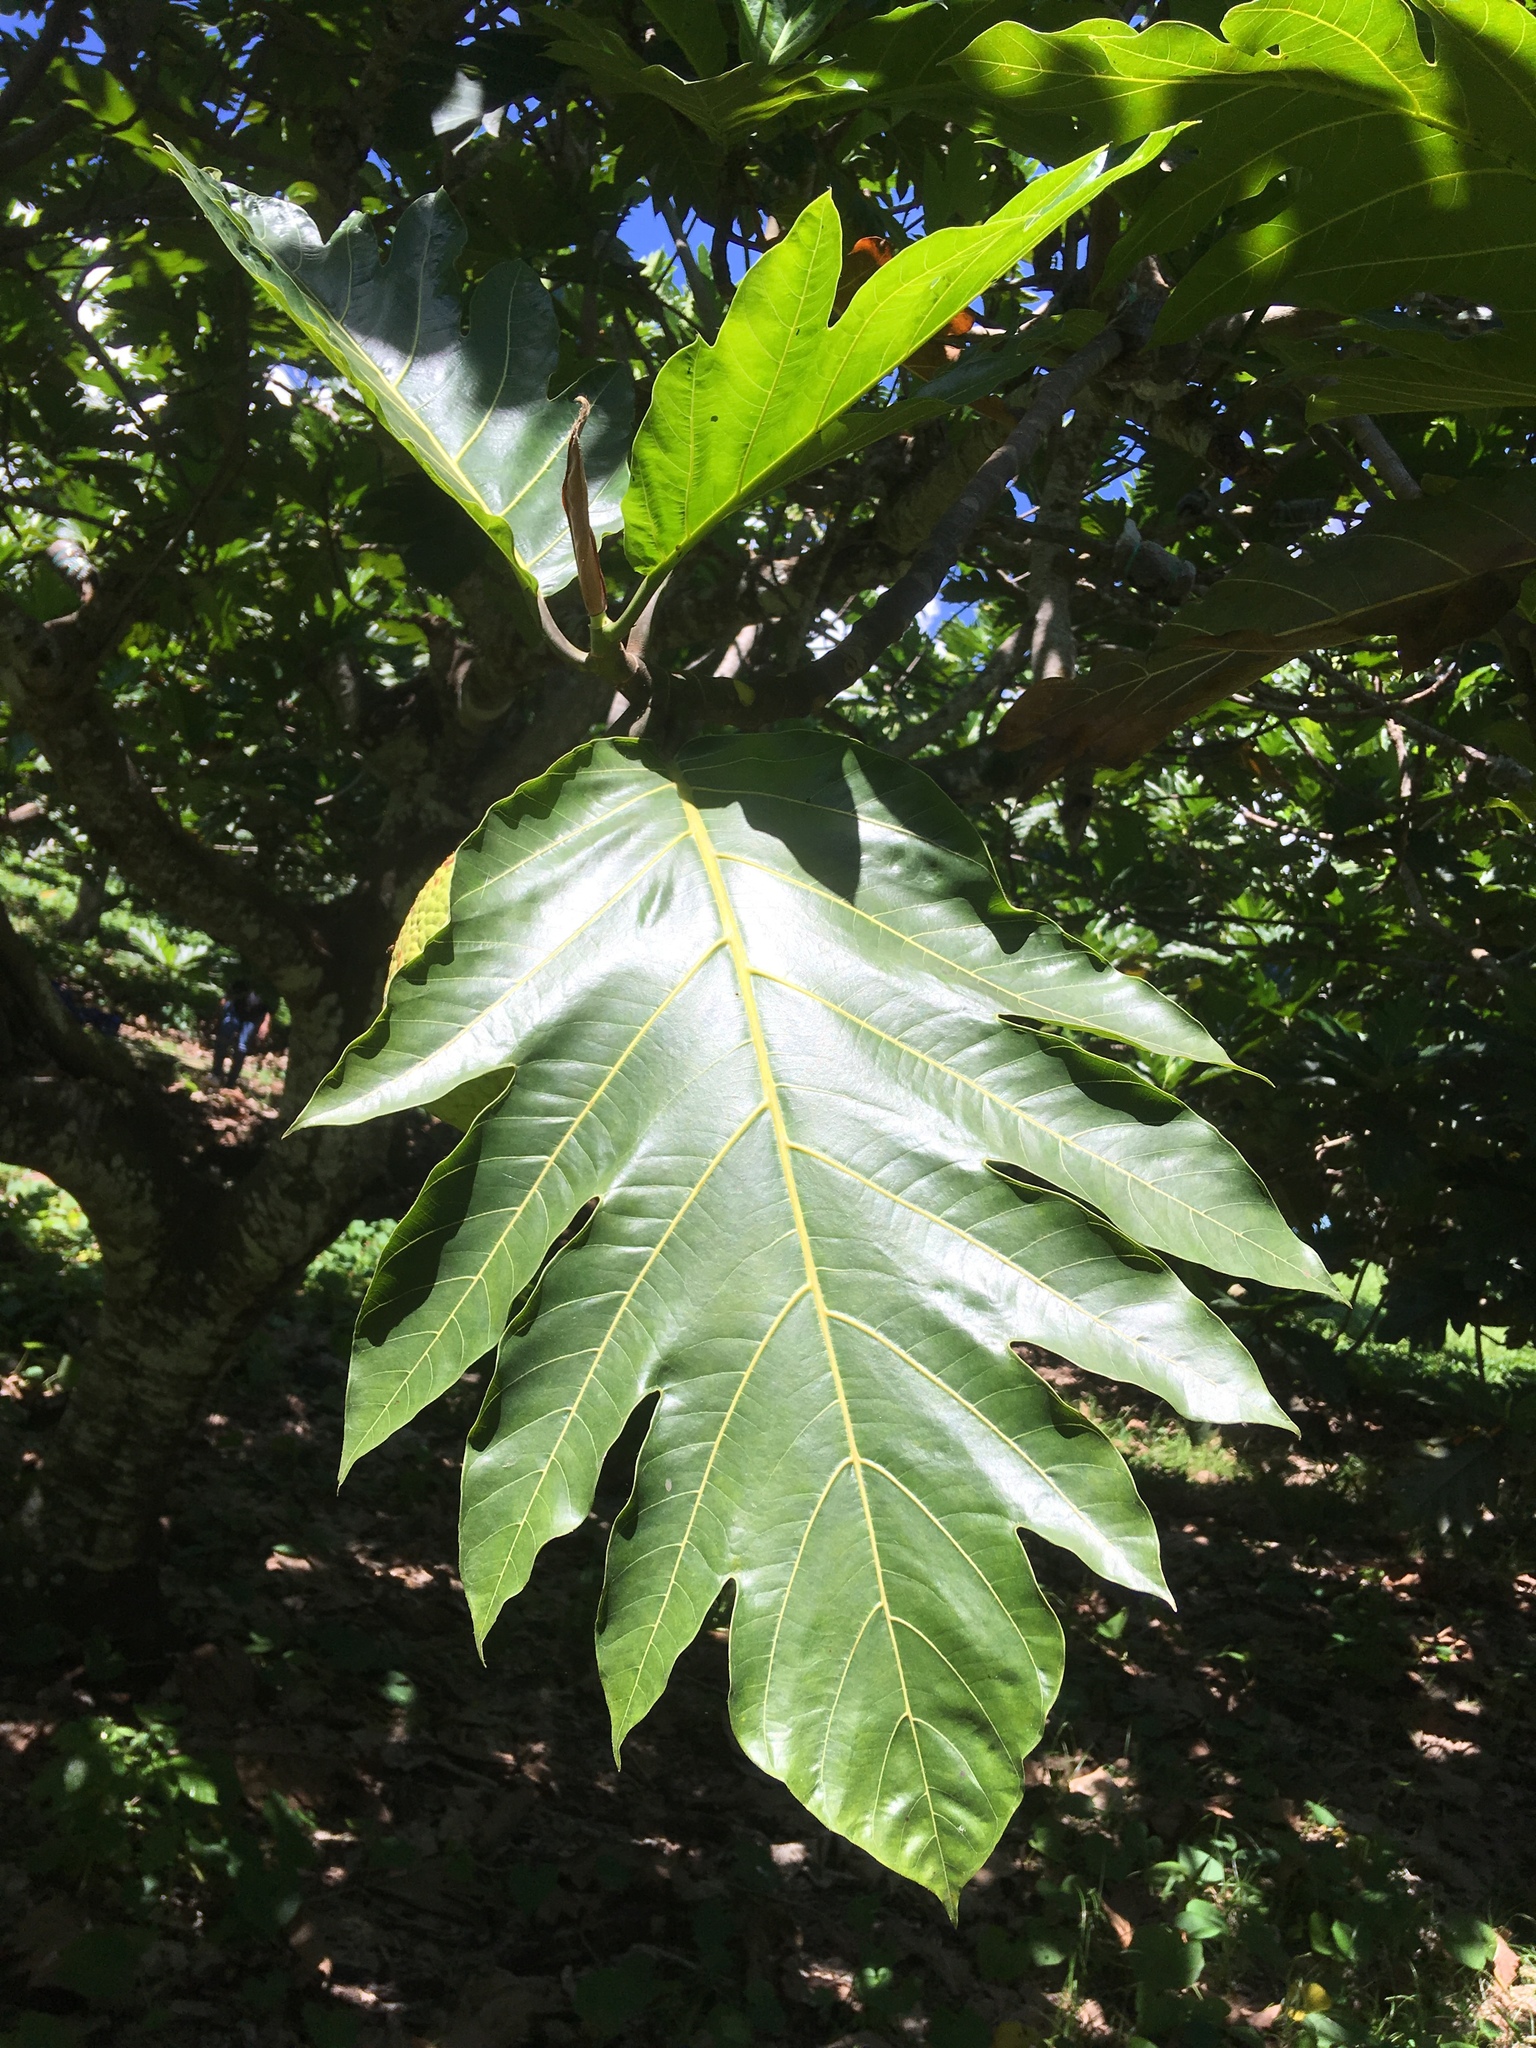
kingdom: Plantae
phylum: Tracheophyta
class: Magnoliopsida
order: Rosales
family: Moraceae
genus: Artocarpus
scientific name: Artocarpus altilis
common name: Breadfruit
